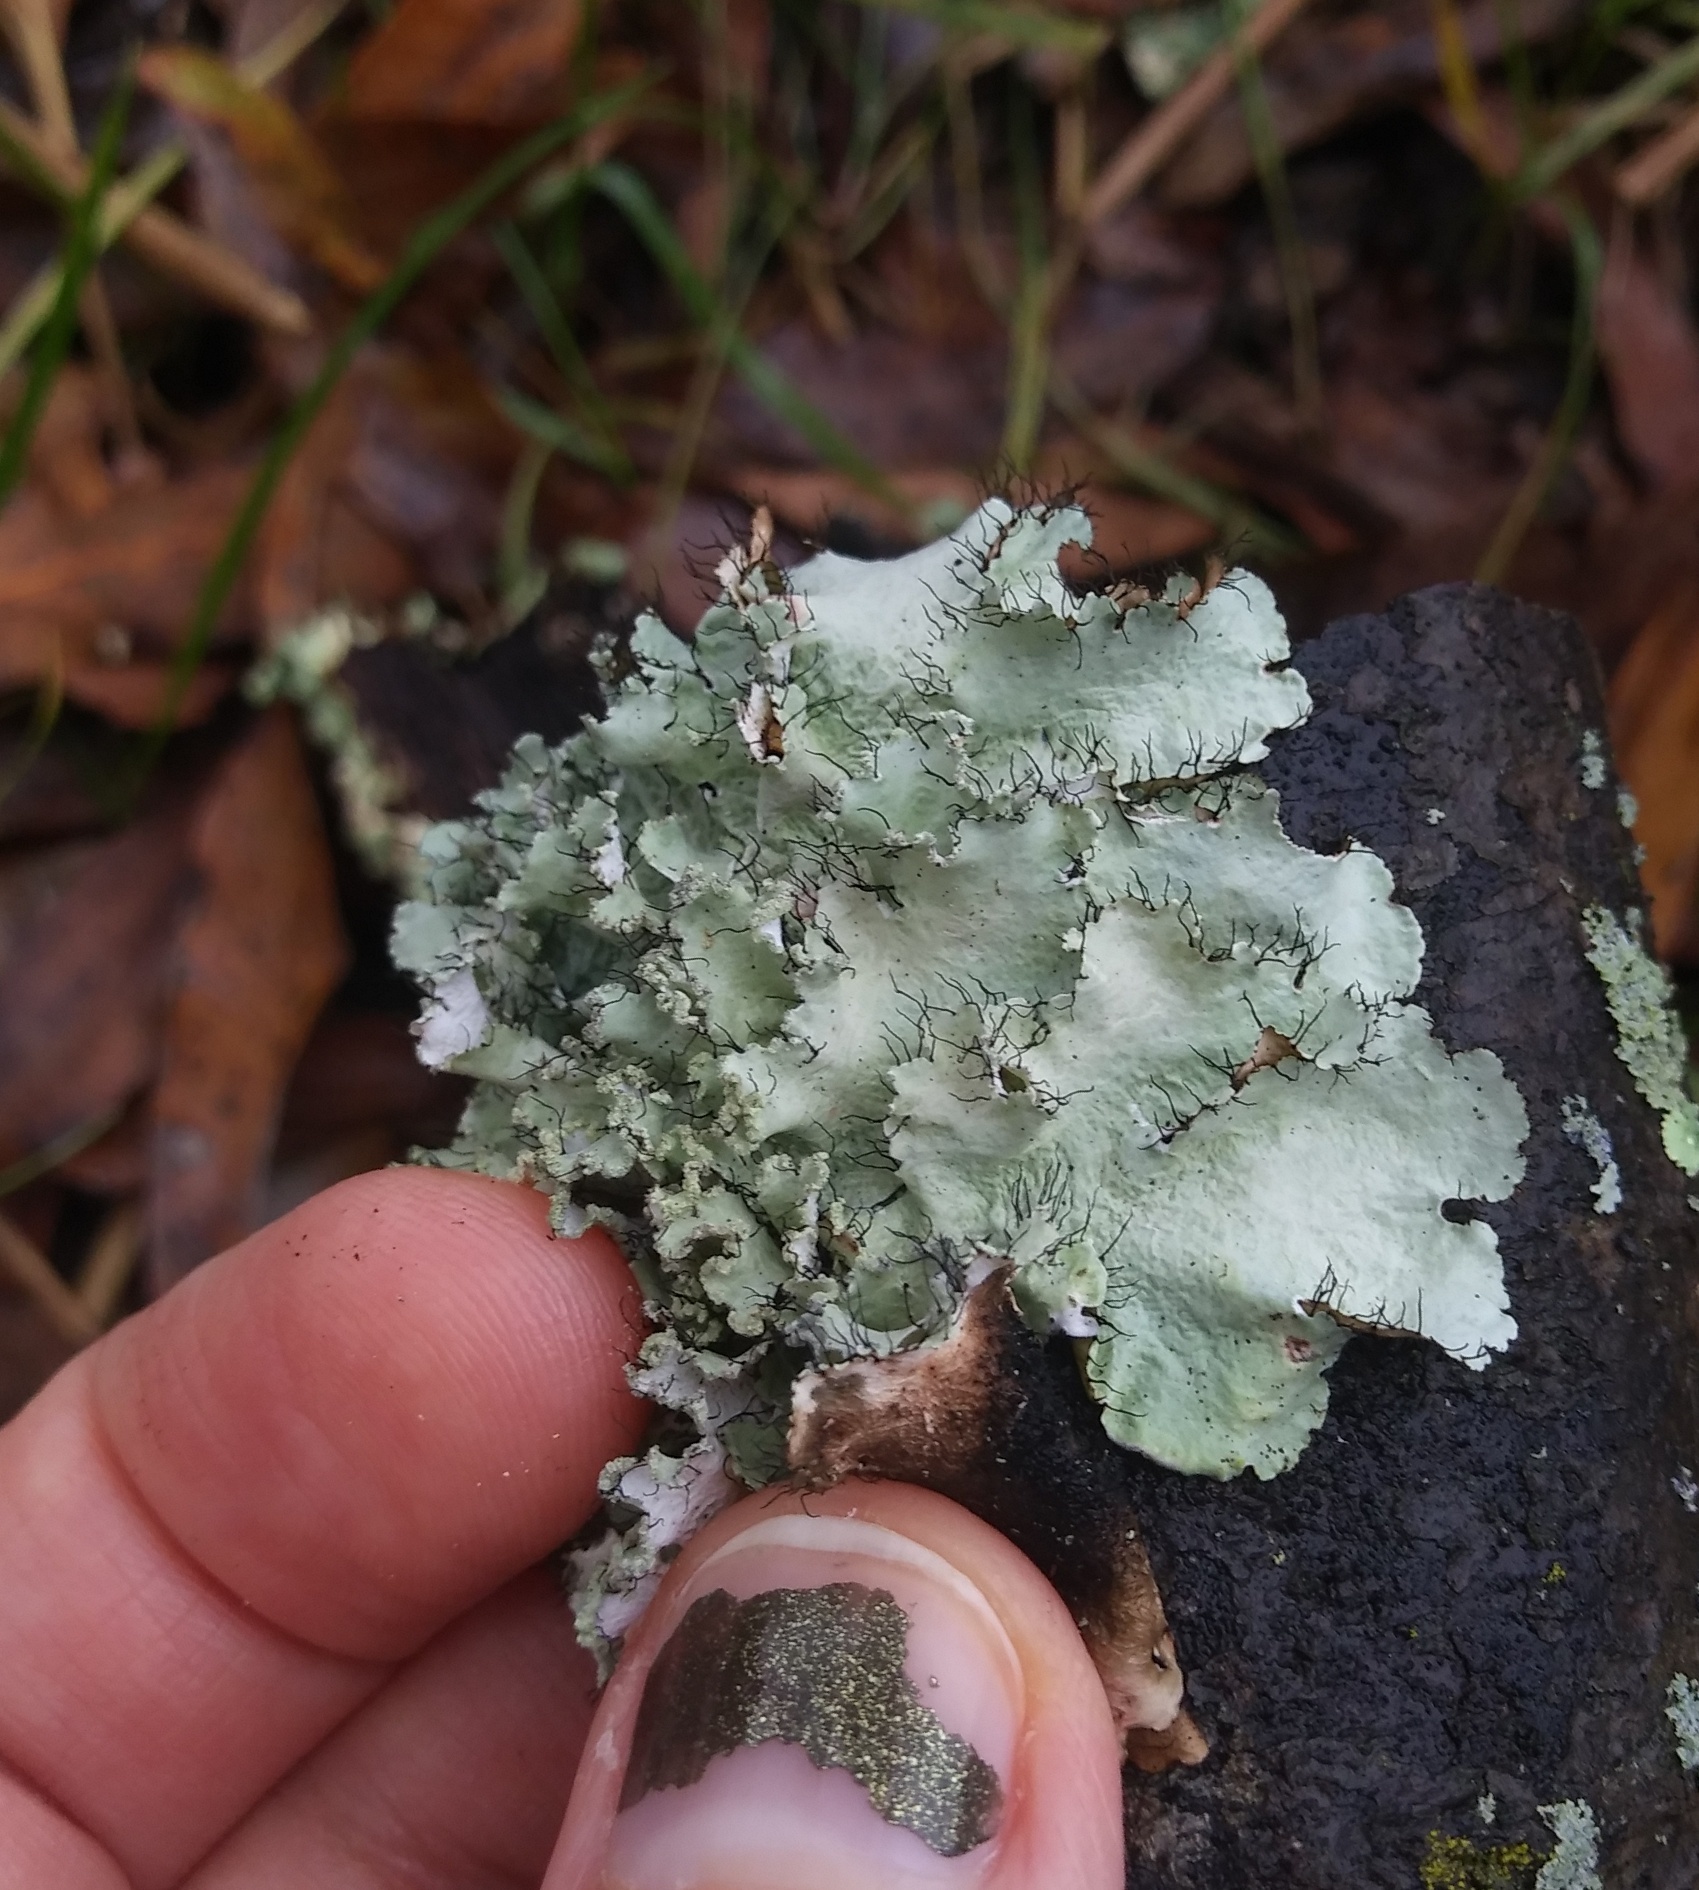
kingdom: Fungi
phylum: Ascomycota
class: Lecanoromycetes
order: Lecanorales
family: Parmeliaceae
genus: Parmotrema
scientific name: Parmotrema hypotropum
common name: Powdered ruffle lichen
